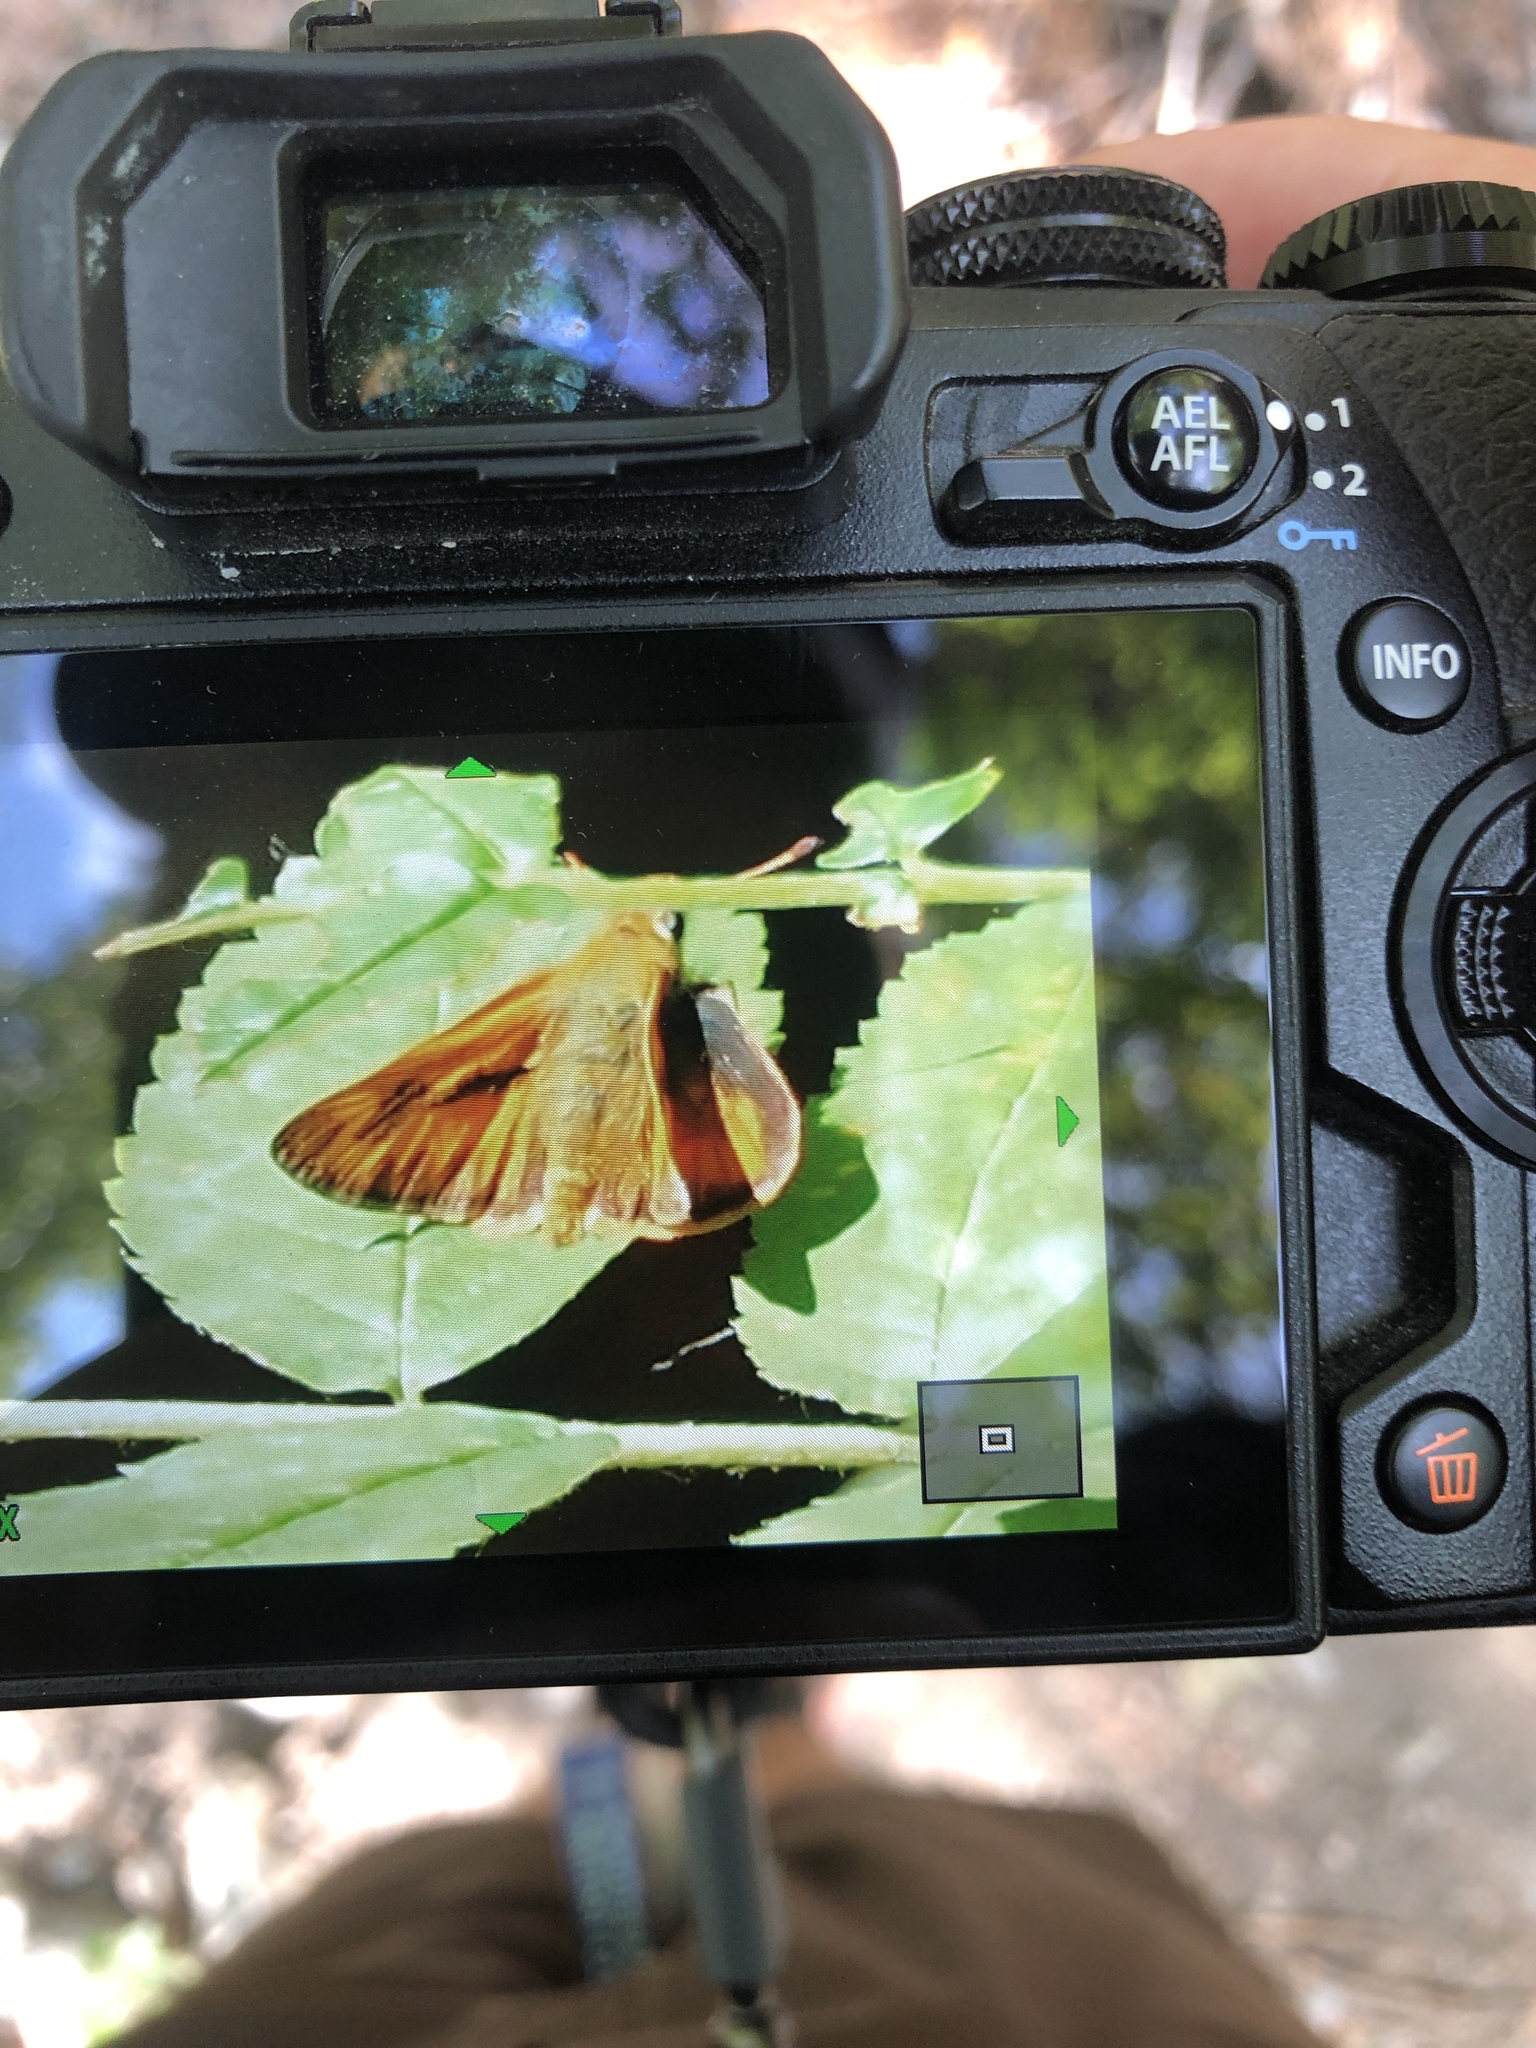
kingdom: Animalia
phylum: Arthropoda
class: Insecta
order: Lepidoptera
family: Hesperiidae
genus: Ochlodes
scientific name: Ochlodes sylvanoides
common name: Woodland skipper
